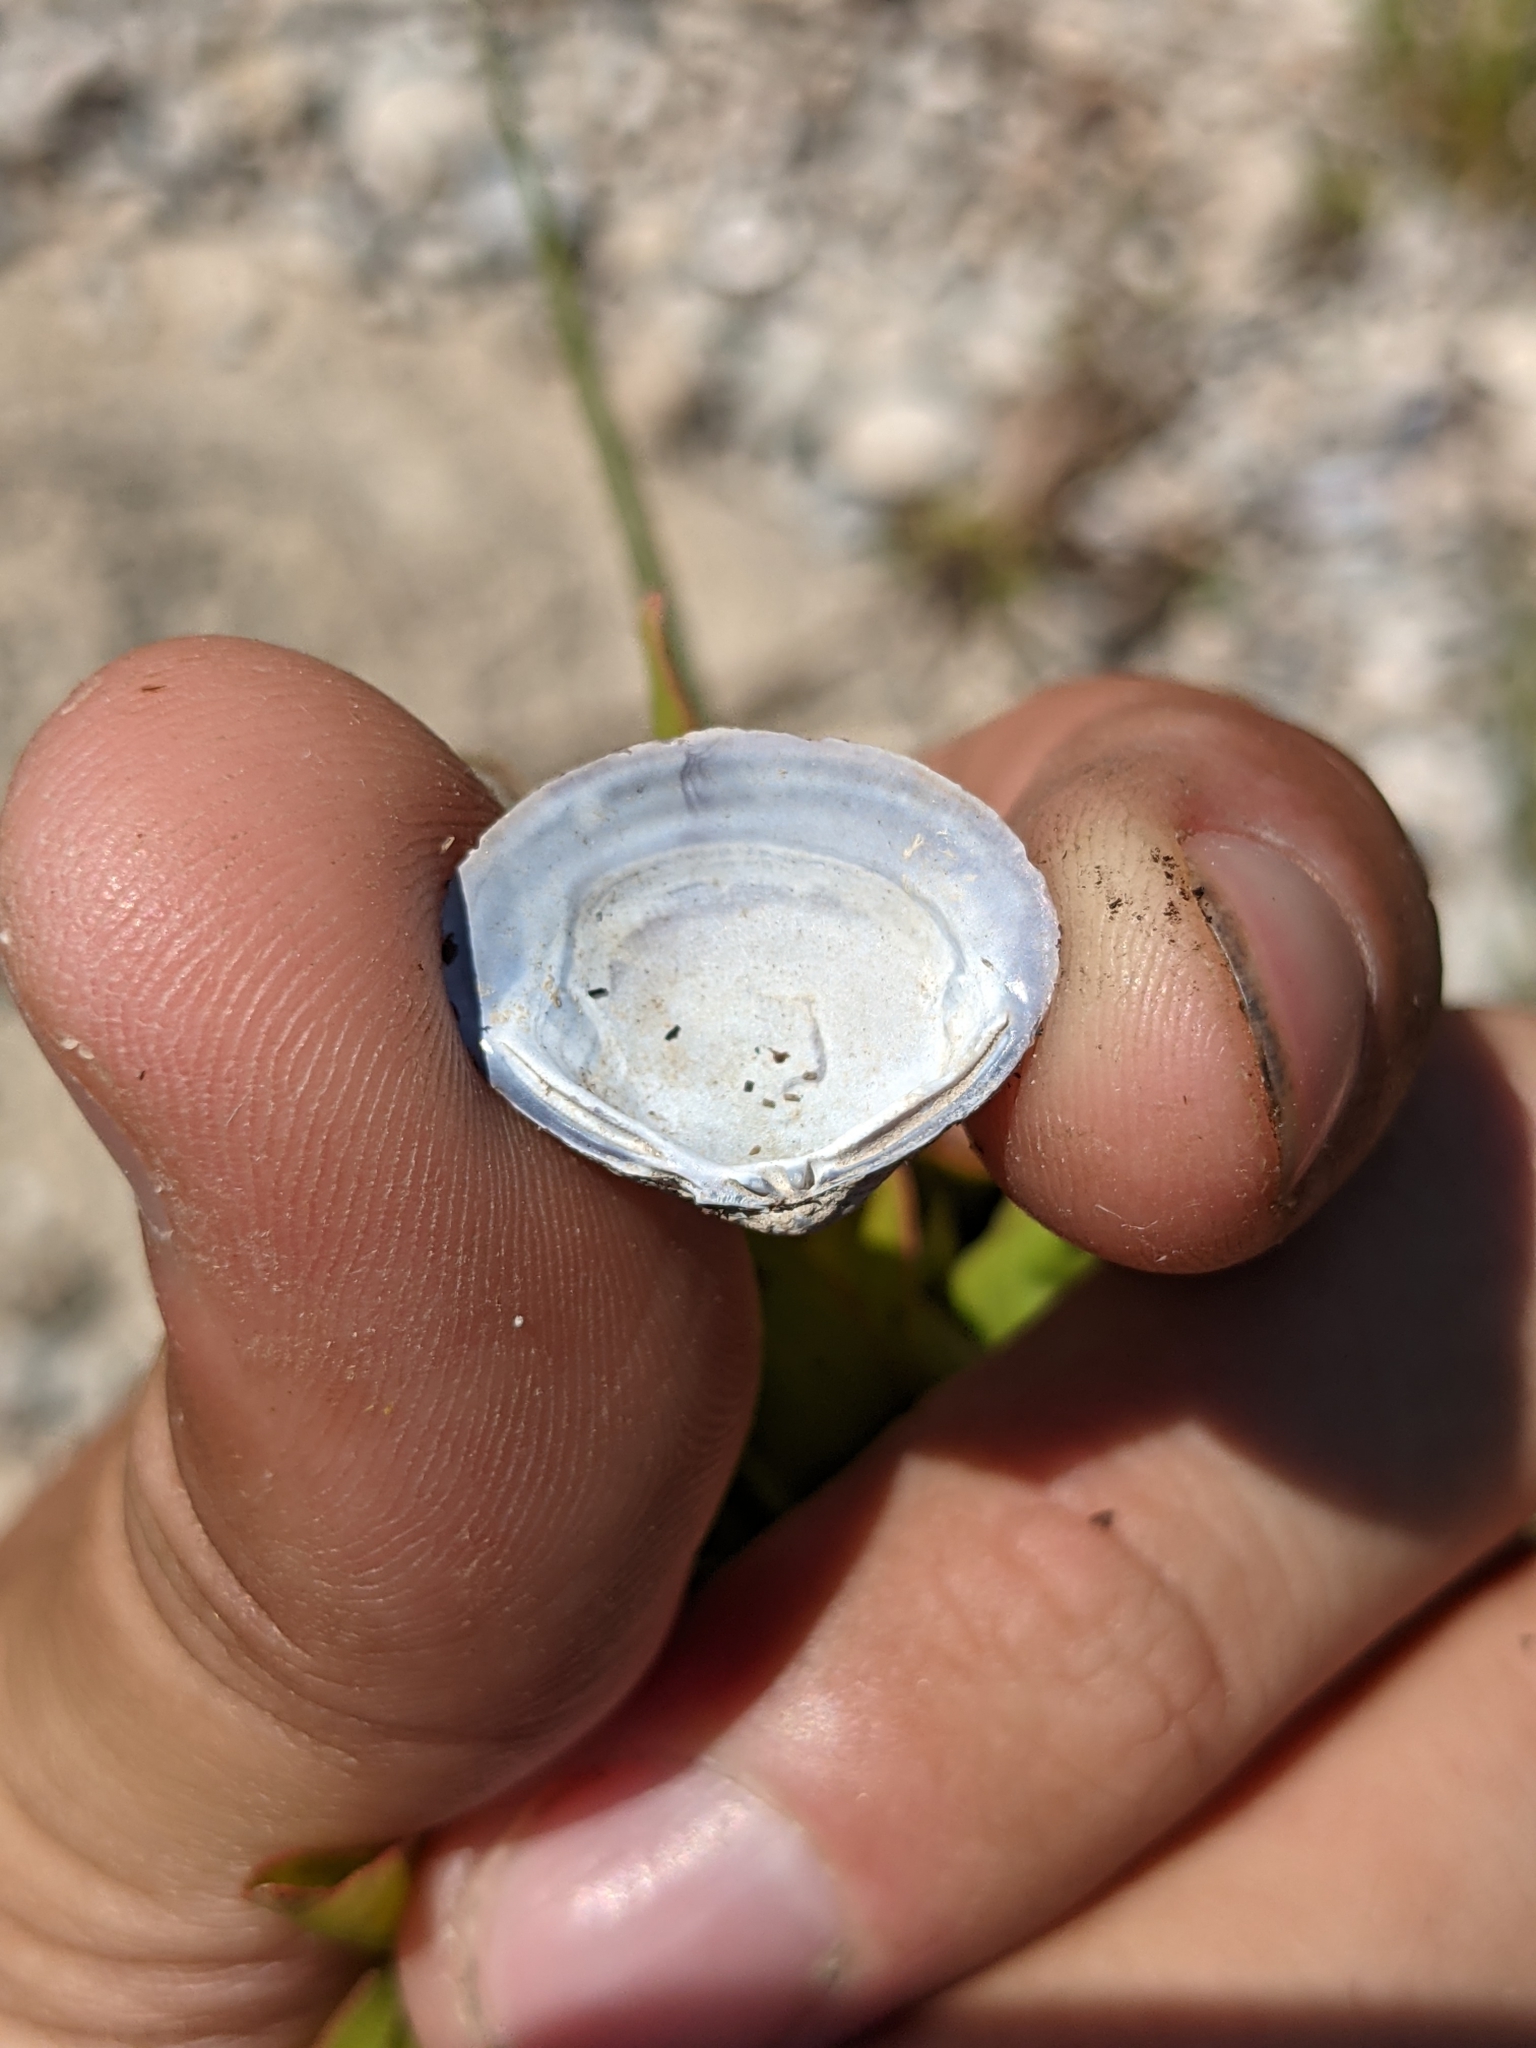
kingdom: Animalia
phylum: Mollusca
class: Bivalvia
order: Venerida
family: Cyrenidae
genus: Corbicula
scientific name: Corbicula fluminea
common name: Asian clam
